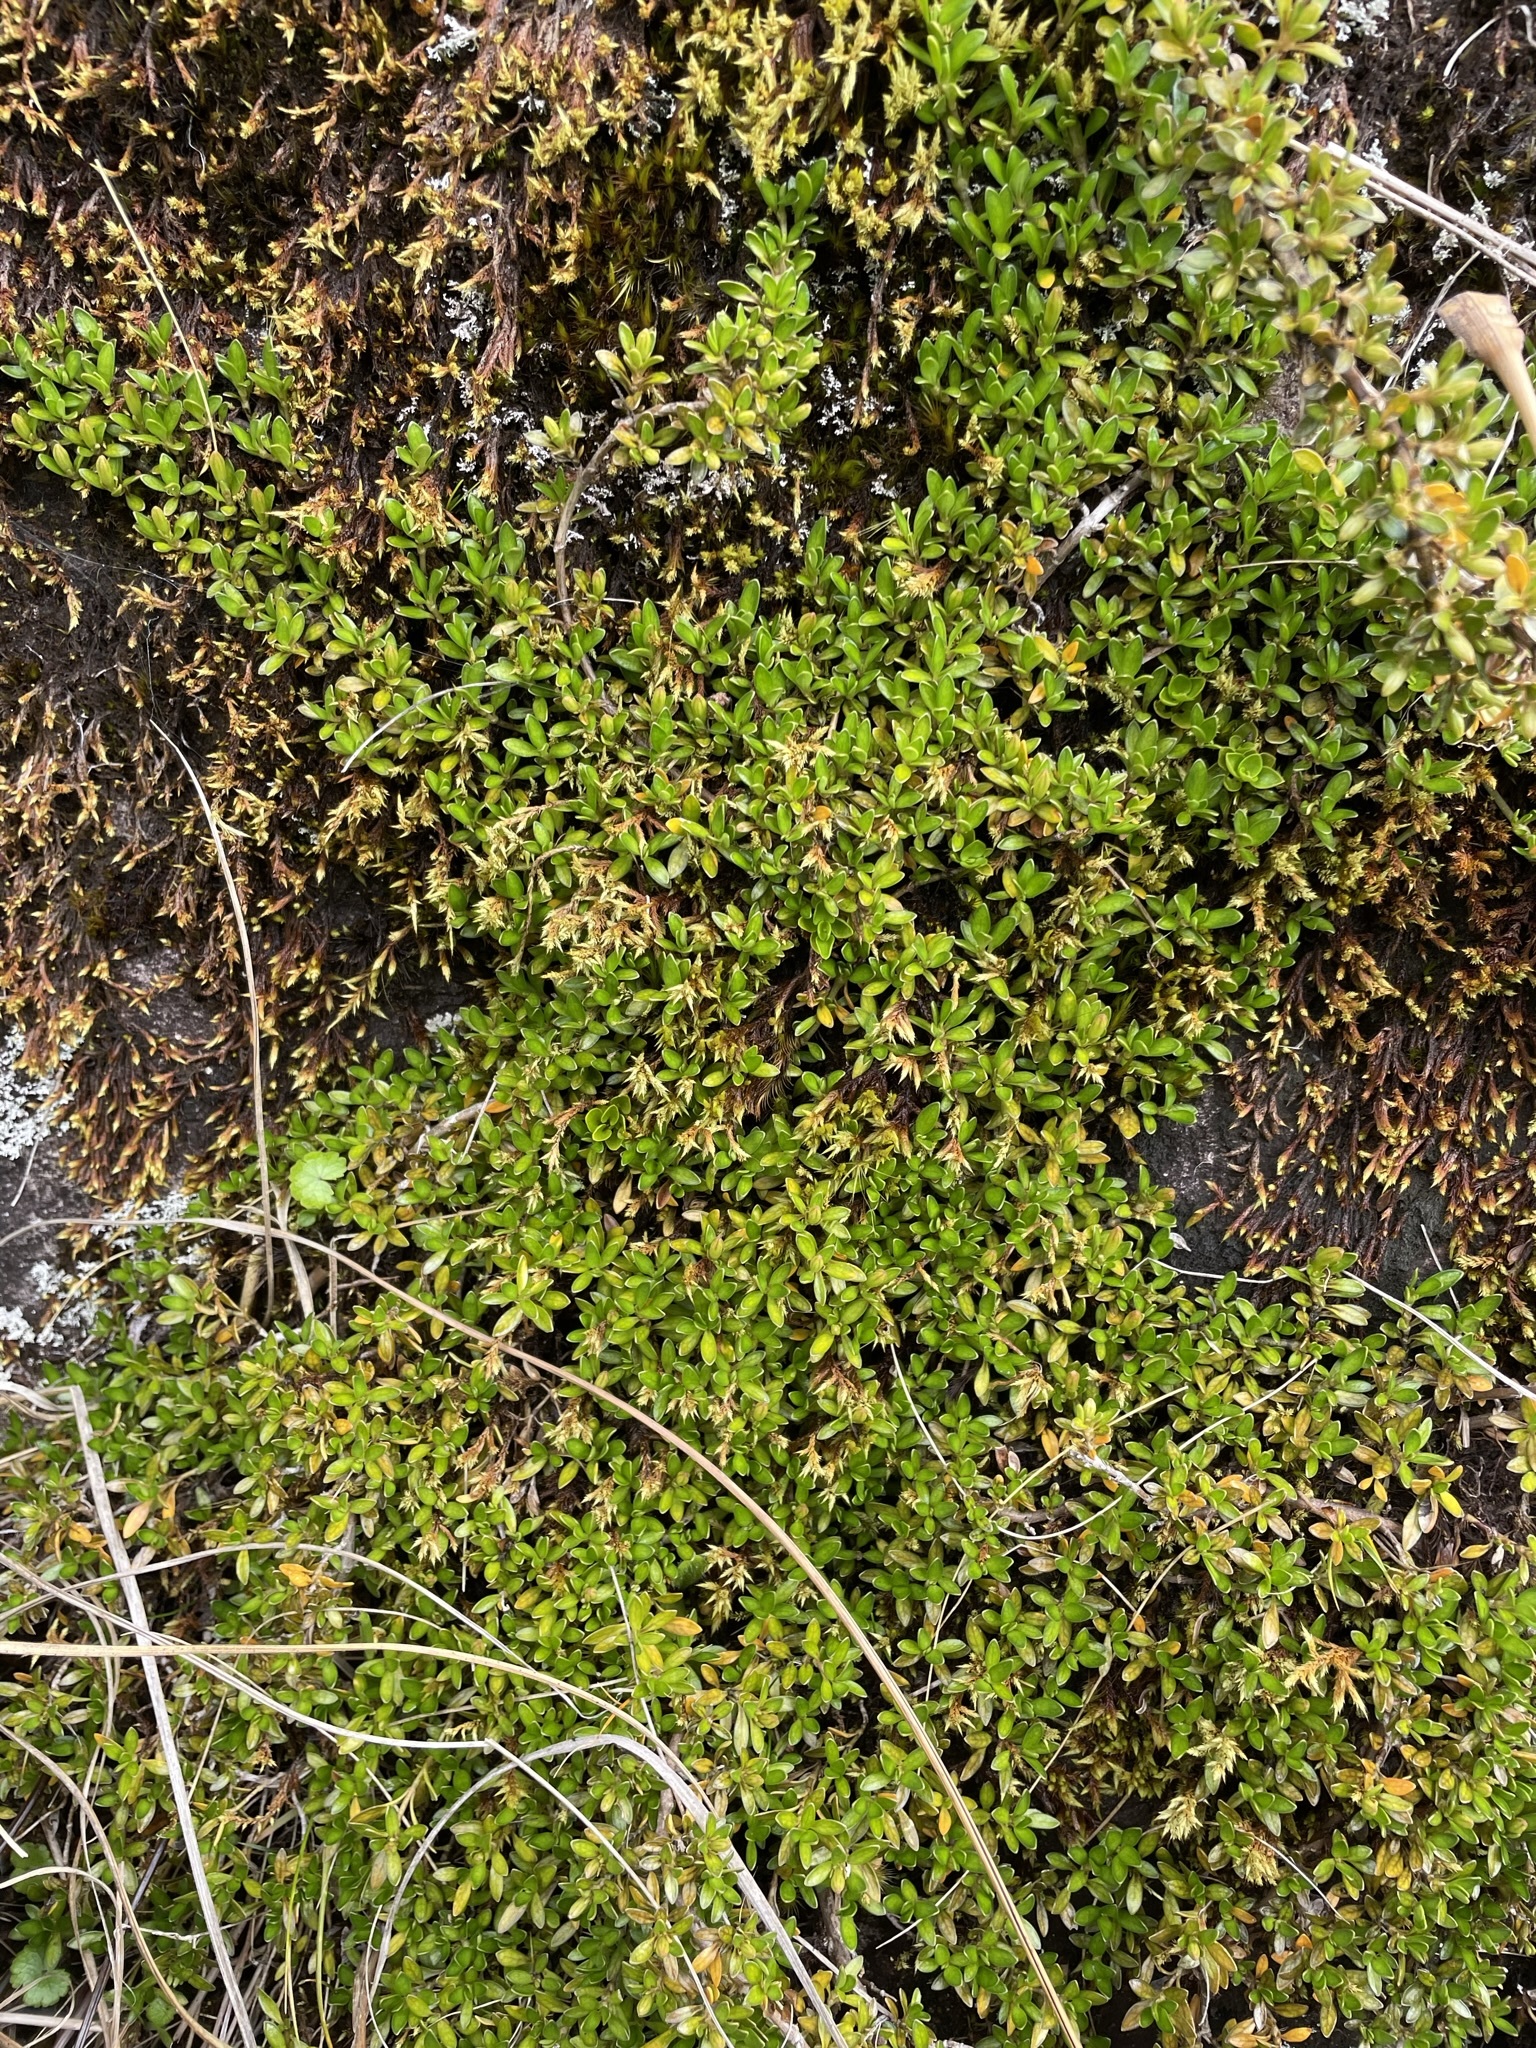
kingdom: Plantae
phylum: Tracheophyta
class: Magnoliopsida
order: Gentianales
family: Rubiaceae
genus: Coprosma
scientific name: Coprosma perpusilla
